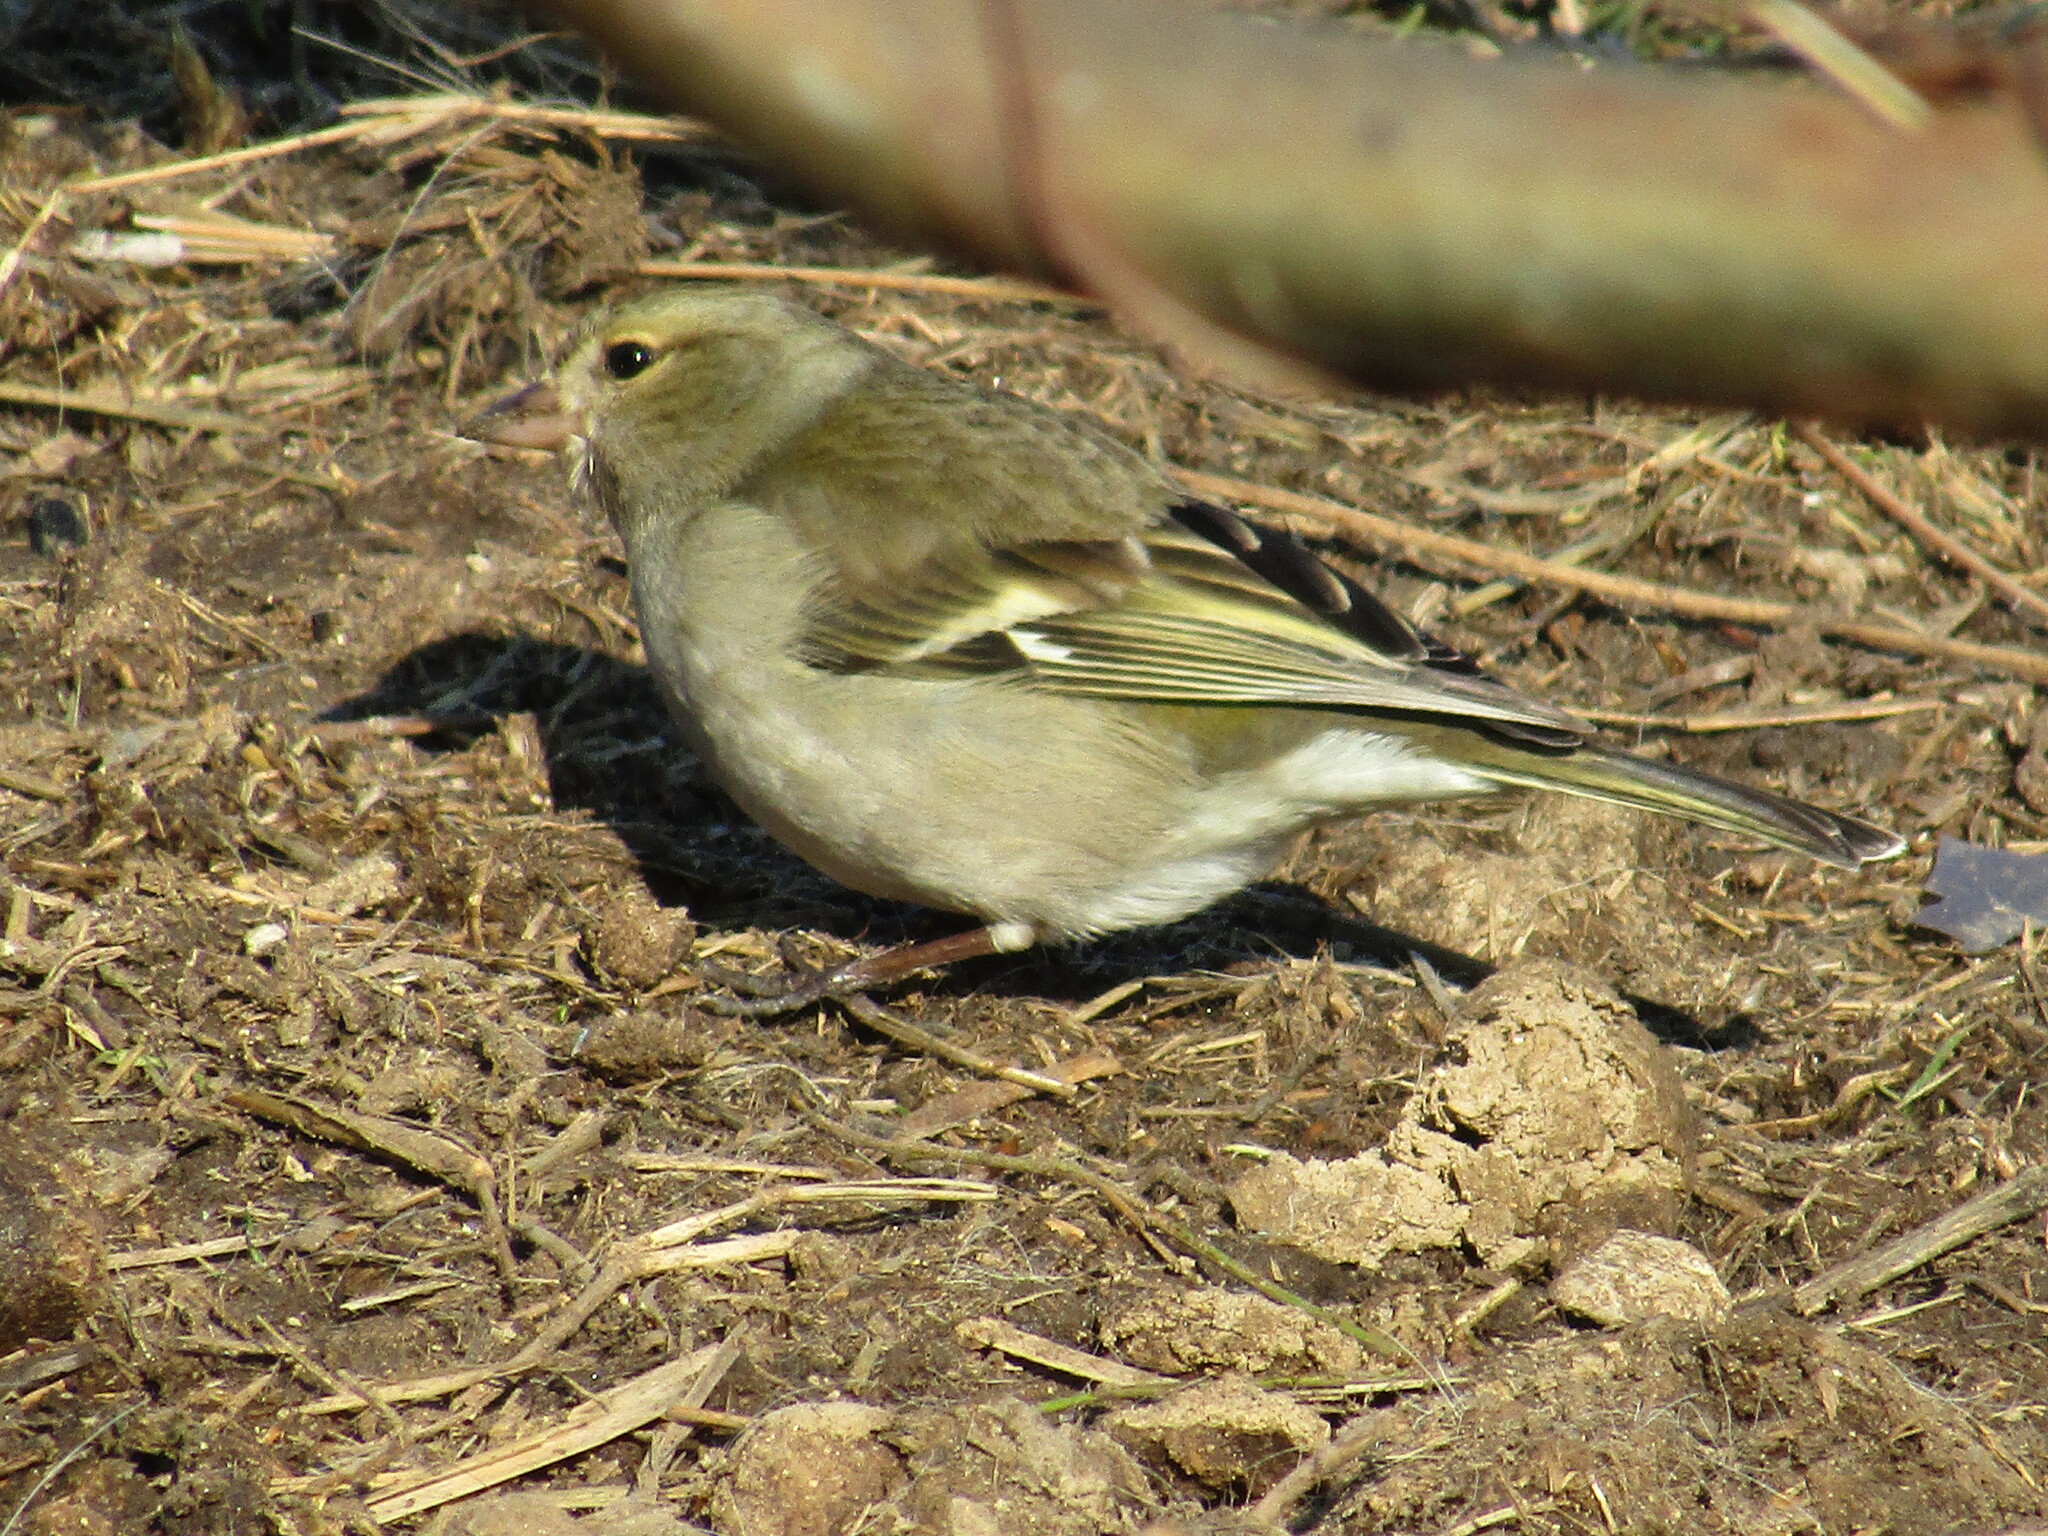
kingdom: Animalia
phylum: Chordata
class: Aves
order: Passeriformes
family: Fringillidae
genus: Fringilla
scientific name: Fringilla coelebs
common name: Common chaffinch
